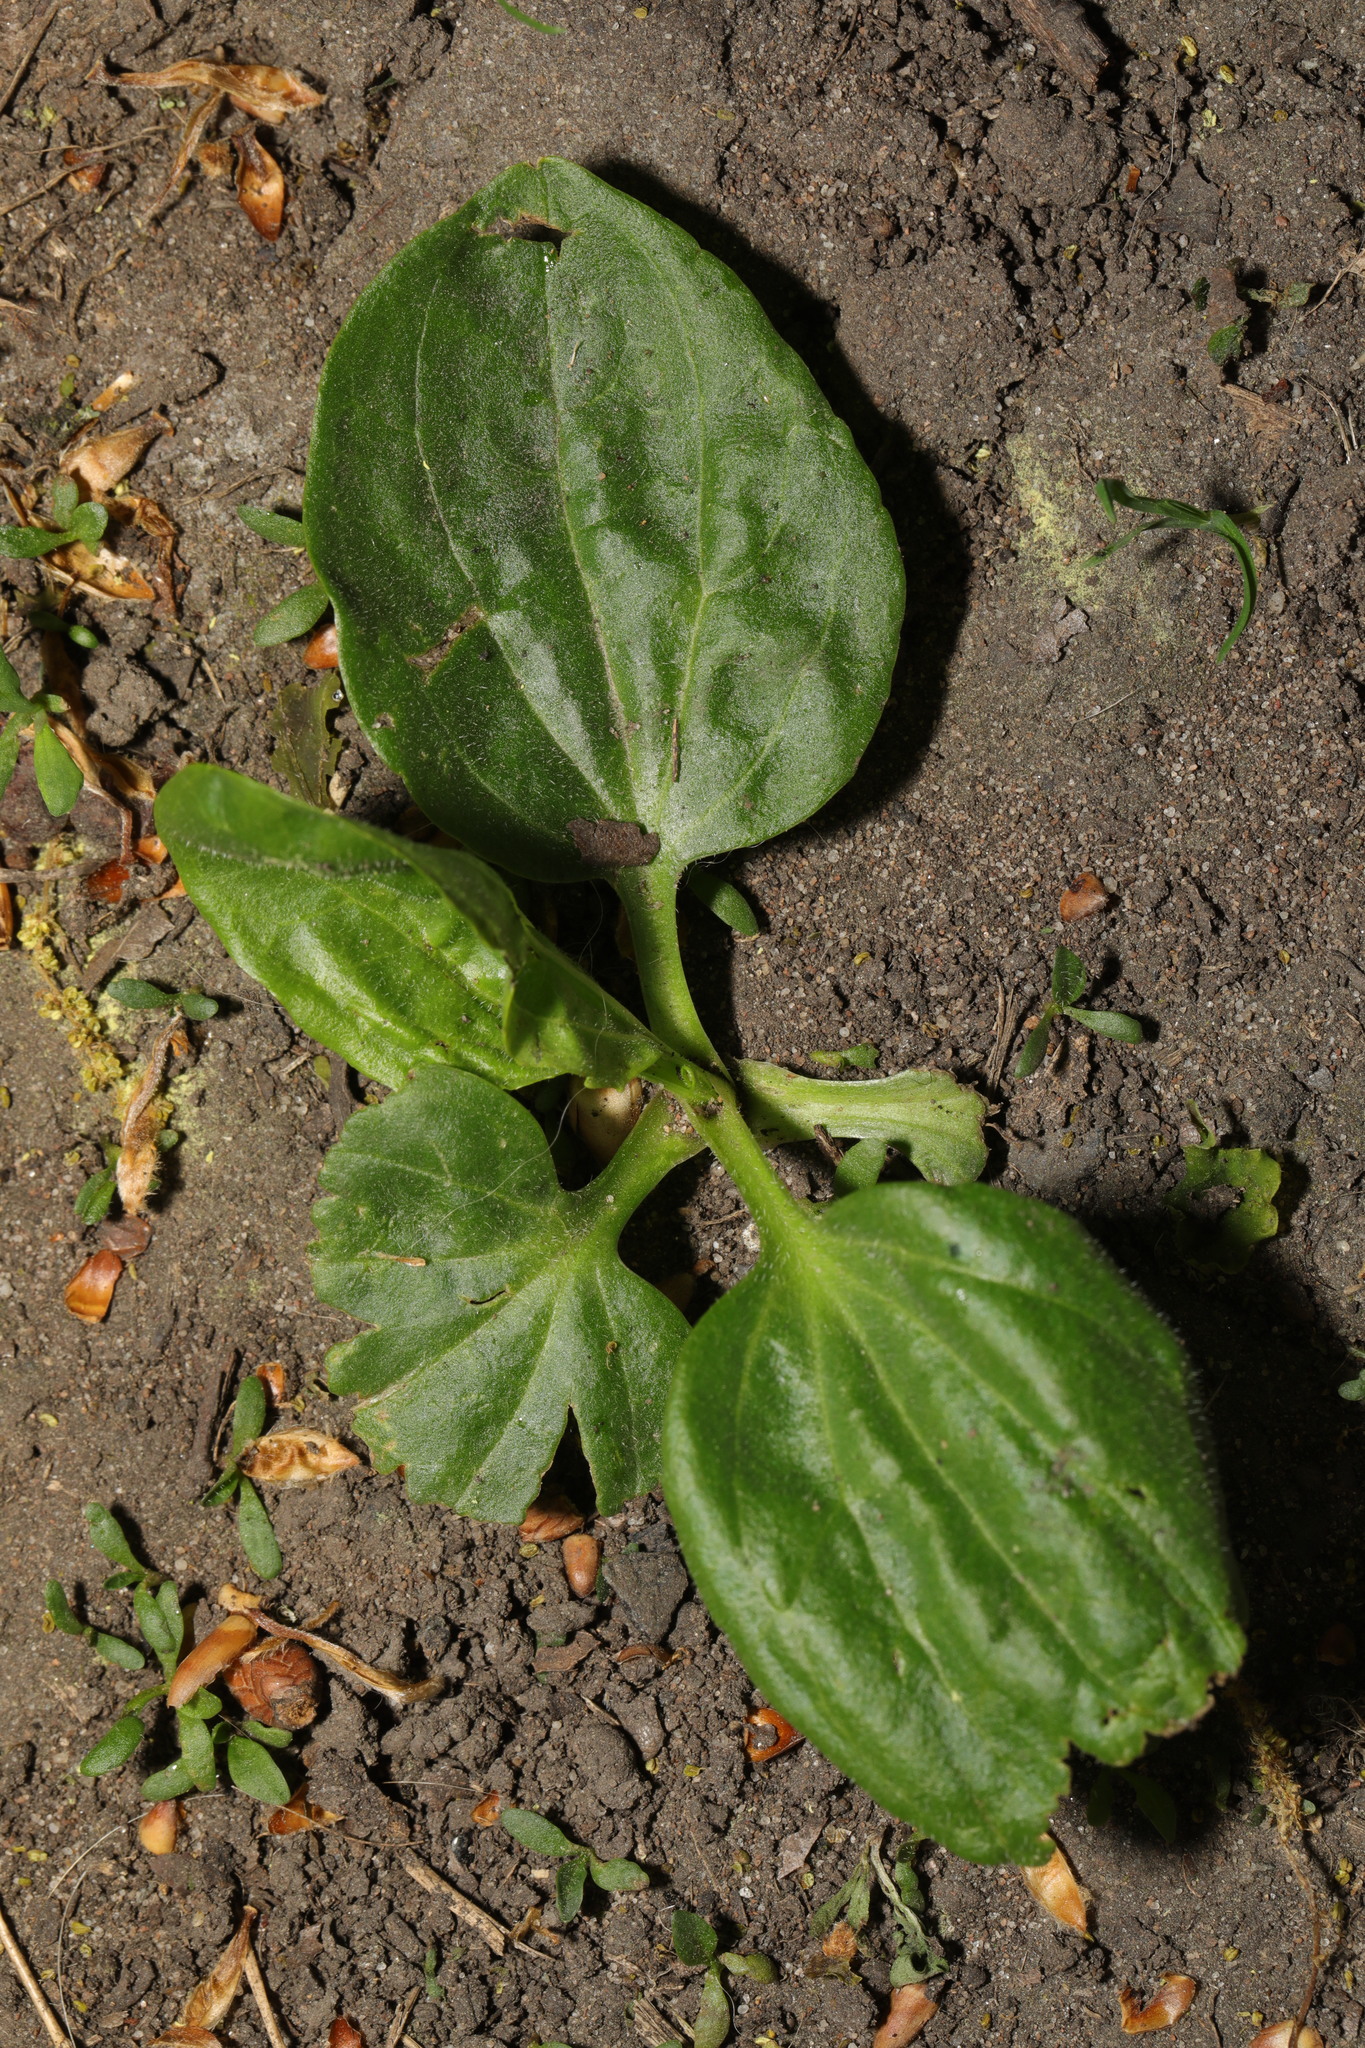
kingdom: Plantae
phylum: Tracheophyta
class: Magnoliopsida
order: Lamiales
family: Plantaginaceae
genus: Plantago
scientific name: Plantago major
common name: Common plantain
